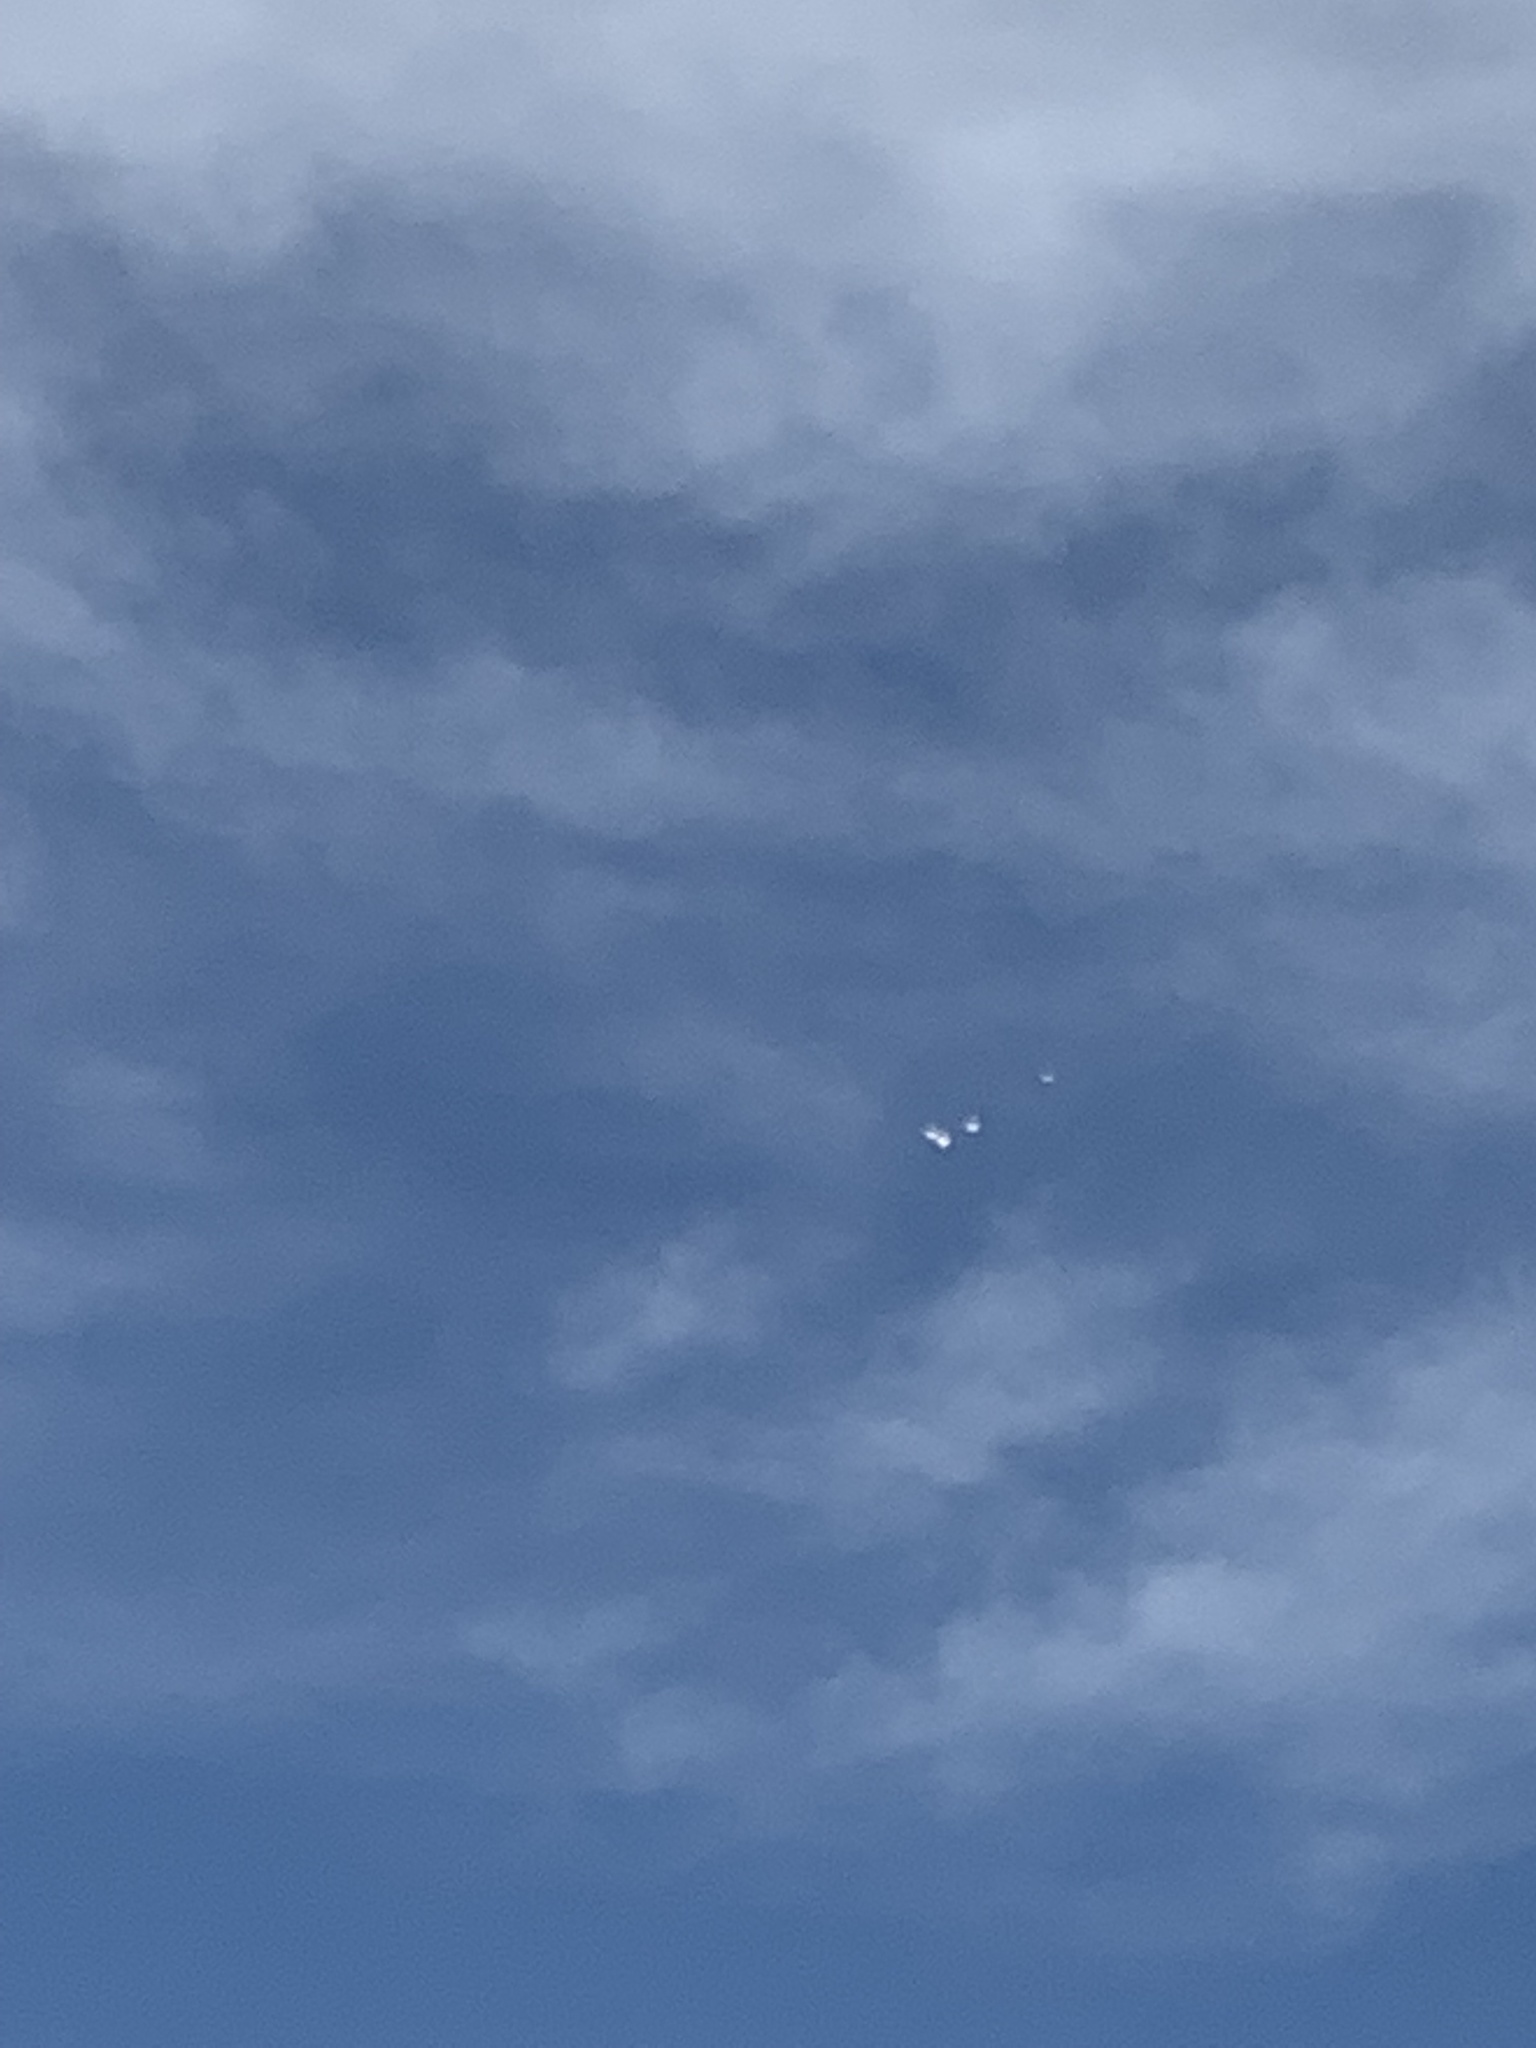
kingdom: Animalia
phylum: Chordata
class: Aves
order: Pelecaniformes
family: Pelecanidae
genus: Pelecanus
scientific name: Pelecanus erythrorhynchos
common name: American white pelican
